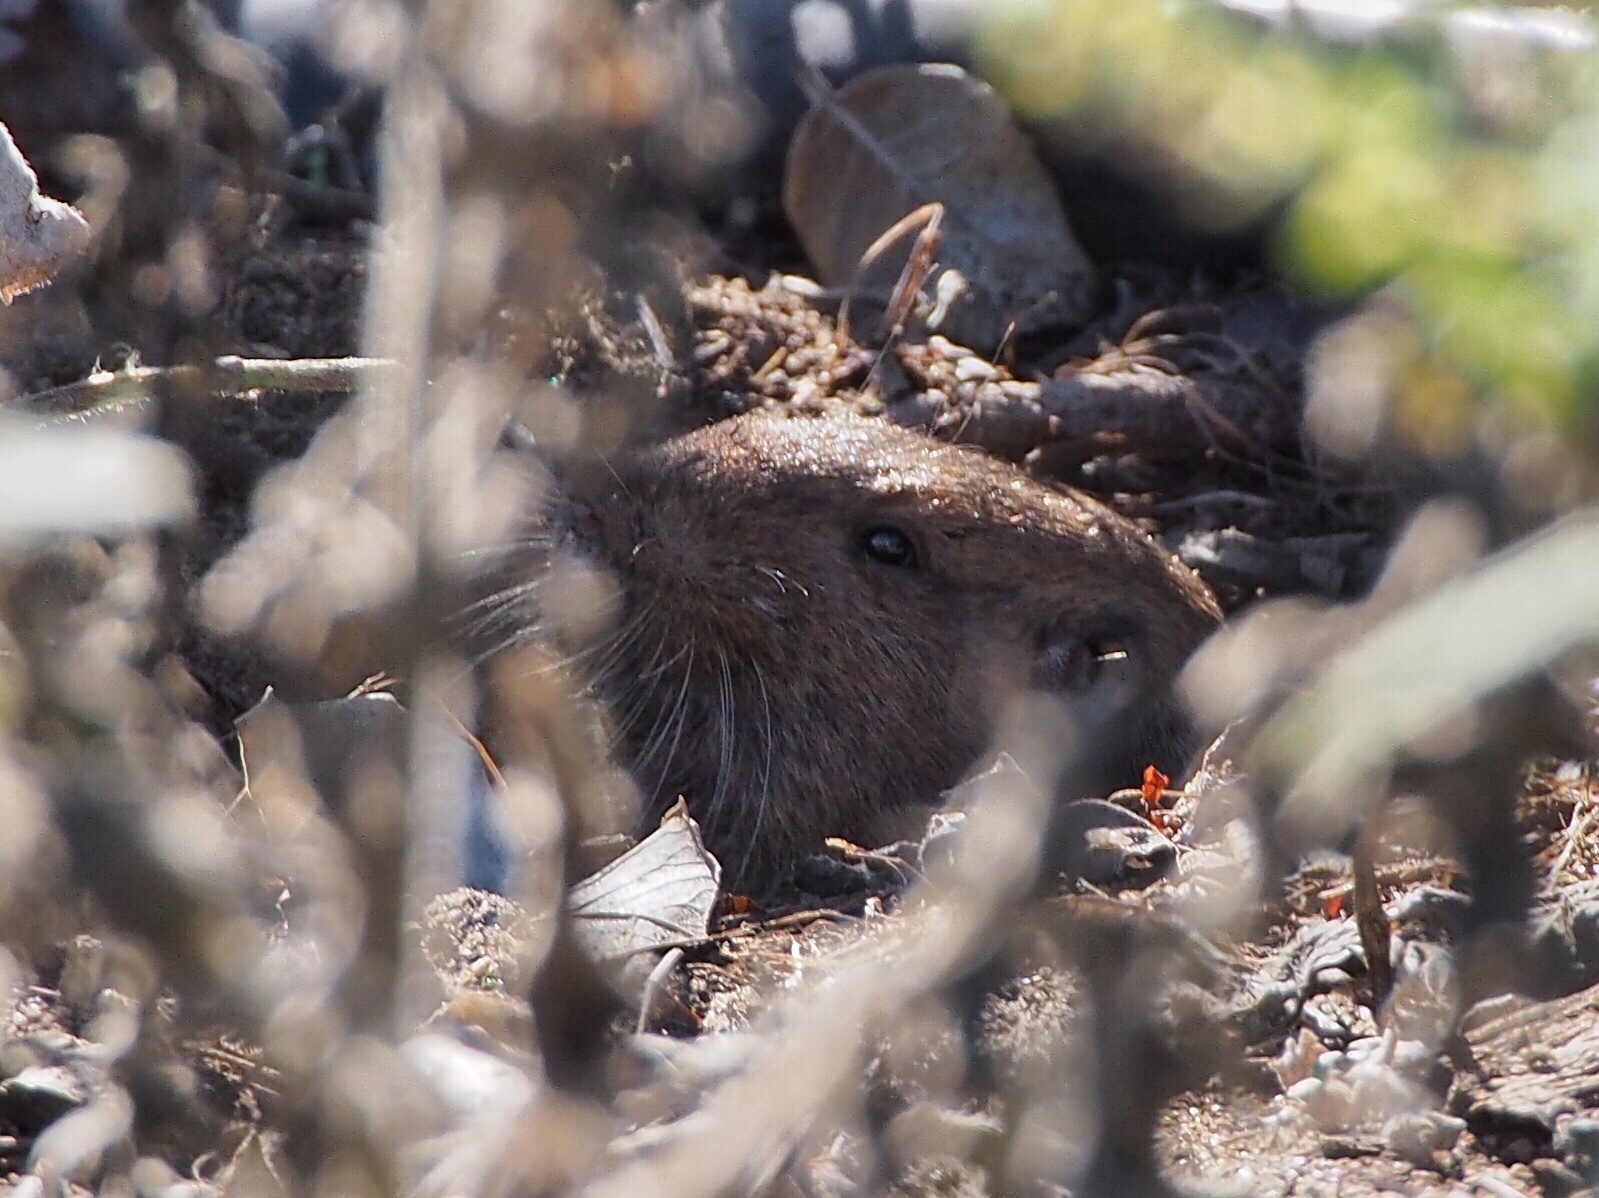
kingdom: Animalia
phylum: Chordata
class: Mammalia
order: Rodentia
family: Geomyidae
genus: Thomomys
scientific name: Thomomys bottae
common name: Botta's pocket gopher
